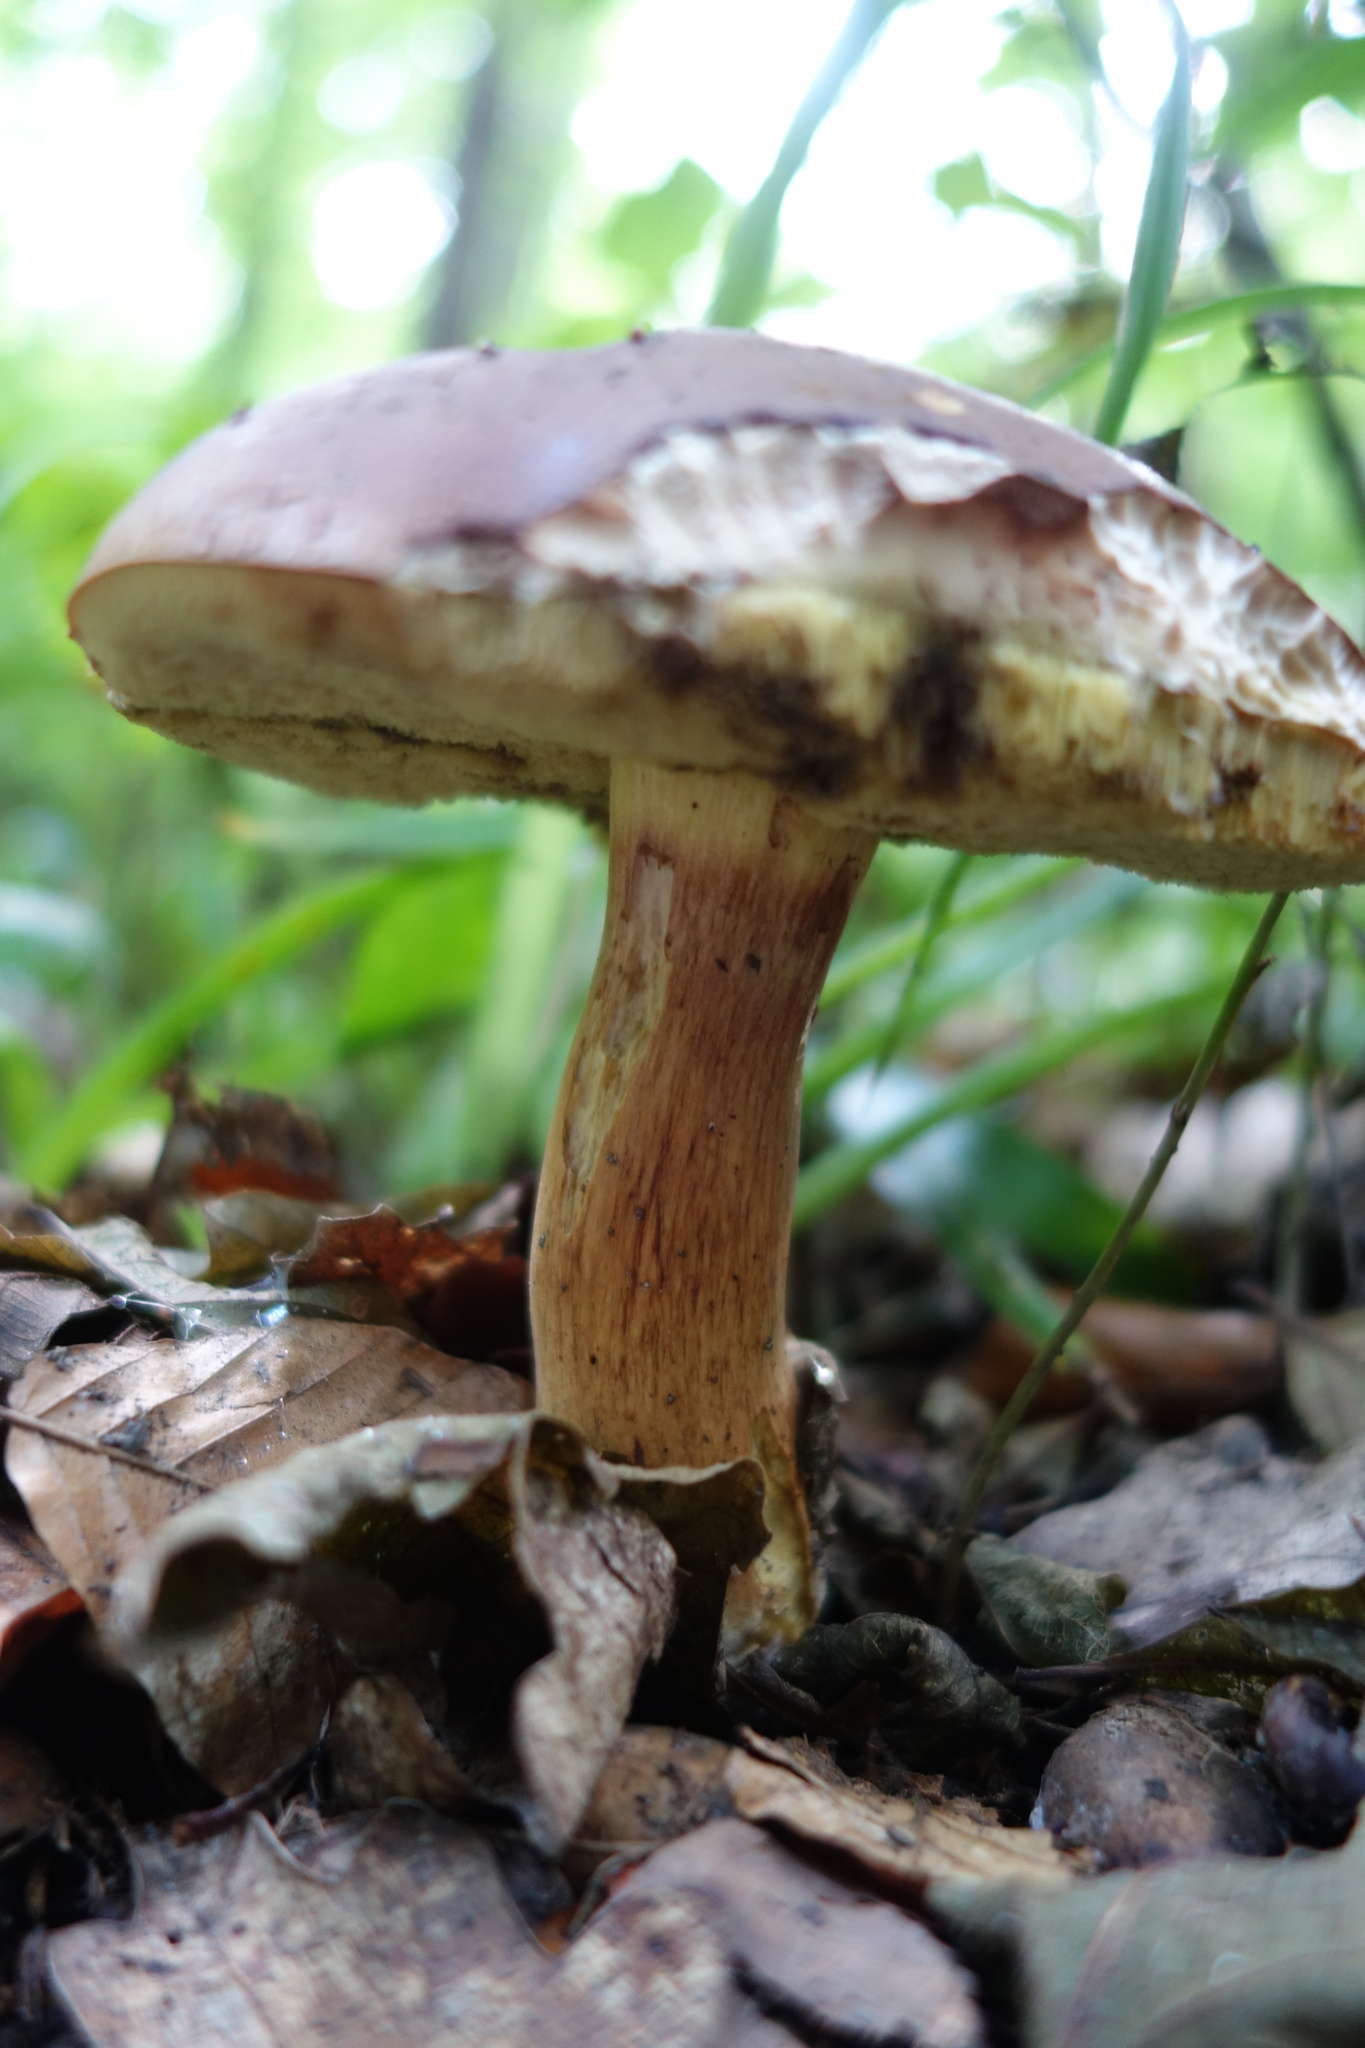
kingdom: Fungi
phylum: Basidiomycota
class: Agaricomycetes
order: Boletales
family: Boletaceae
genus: Imleria
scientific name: Imleria badia
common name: Bay bolete
